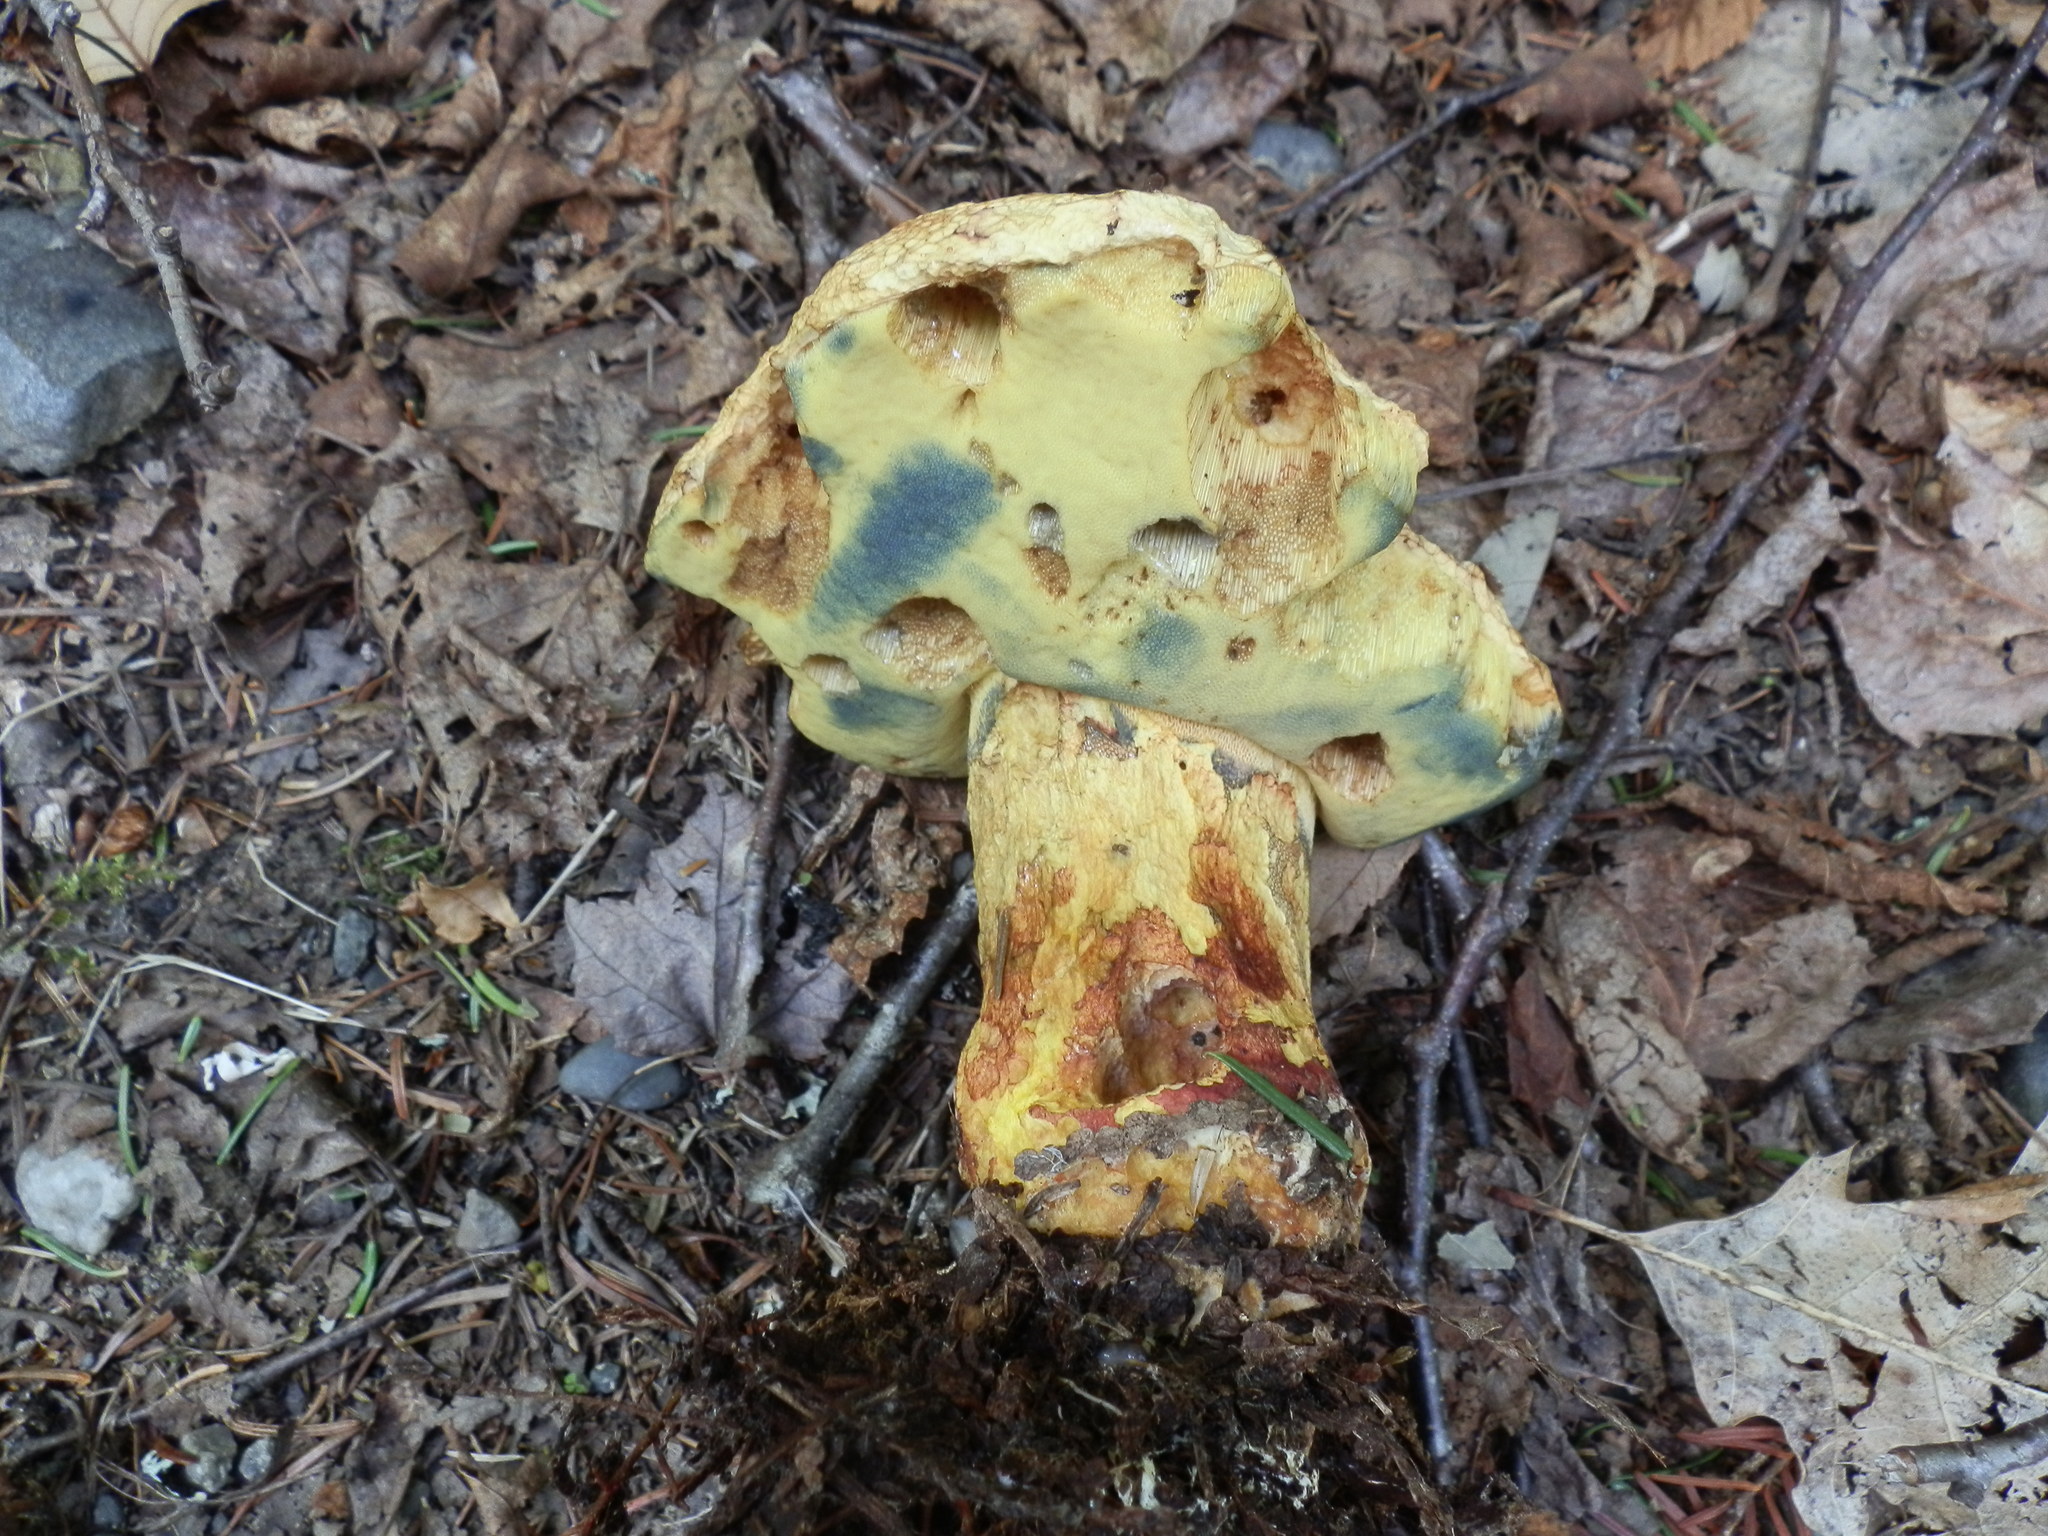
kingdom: Fungi
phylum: Basidiomycota
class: Agaricomycetes
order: Boletales
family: Boletaceae
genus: Butyriboletus
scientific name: Butyriboletus brunneus
